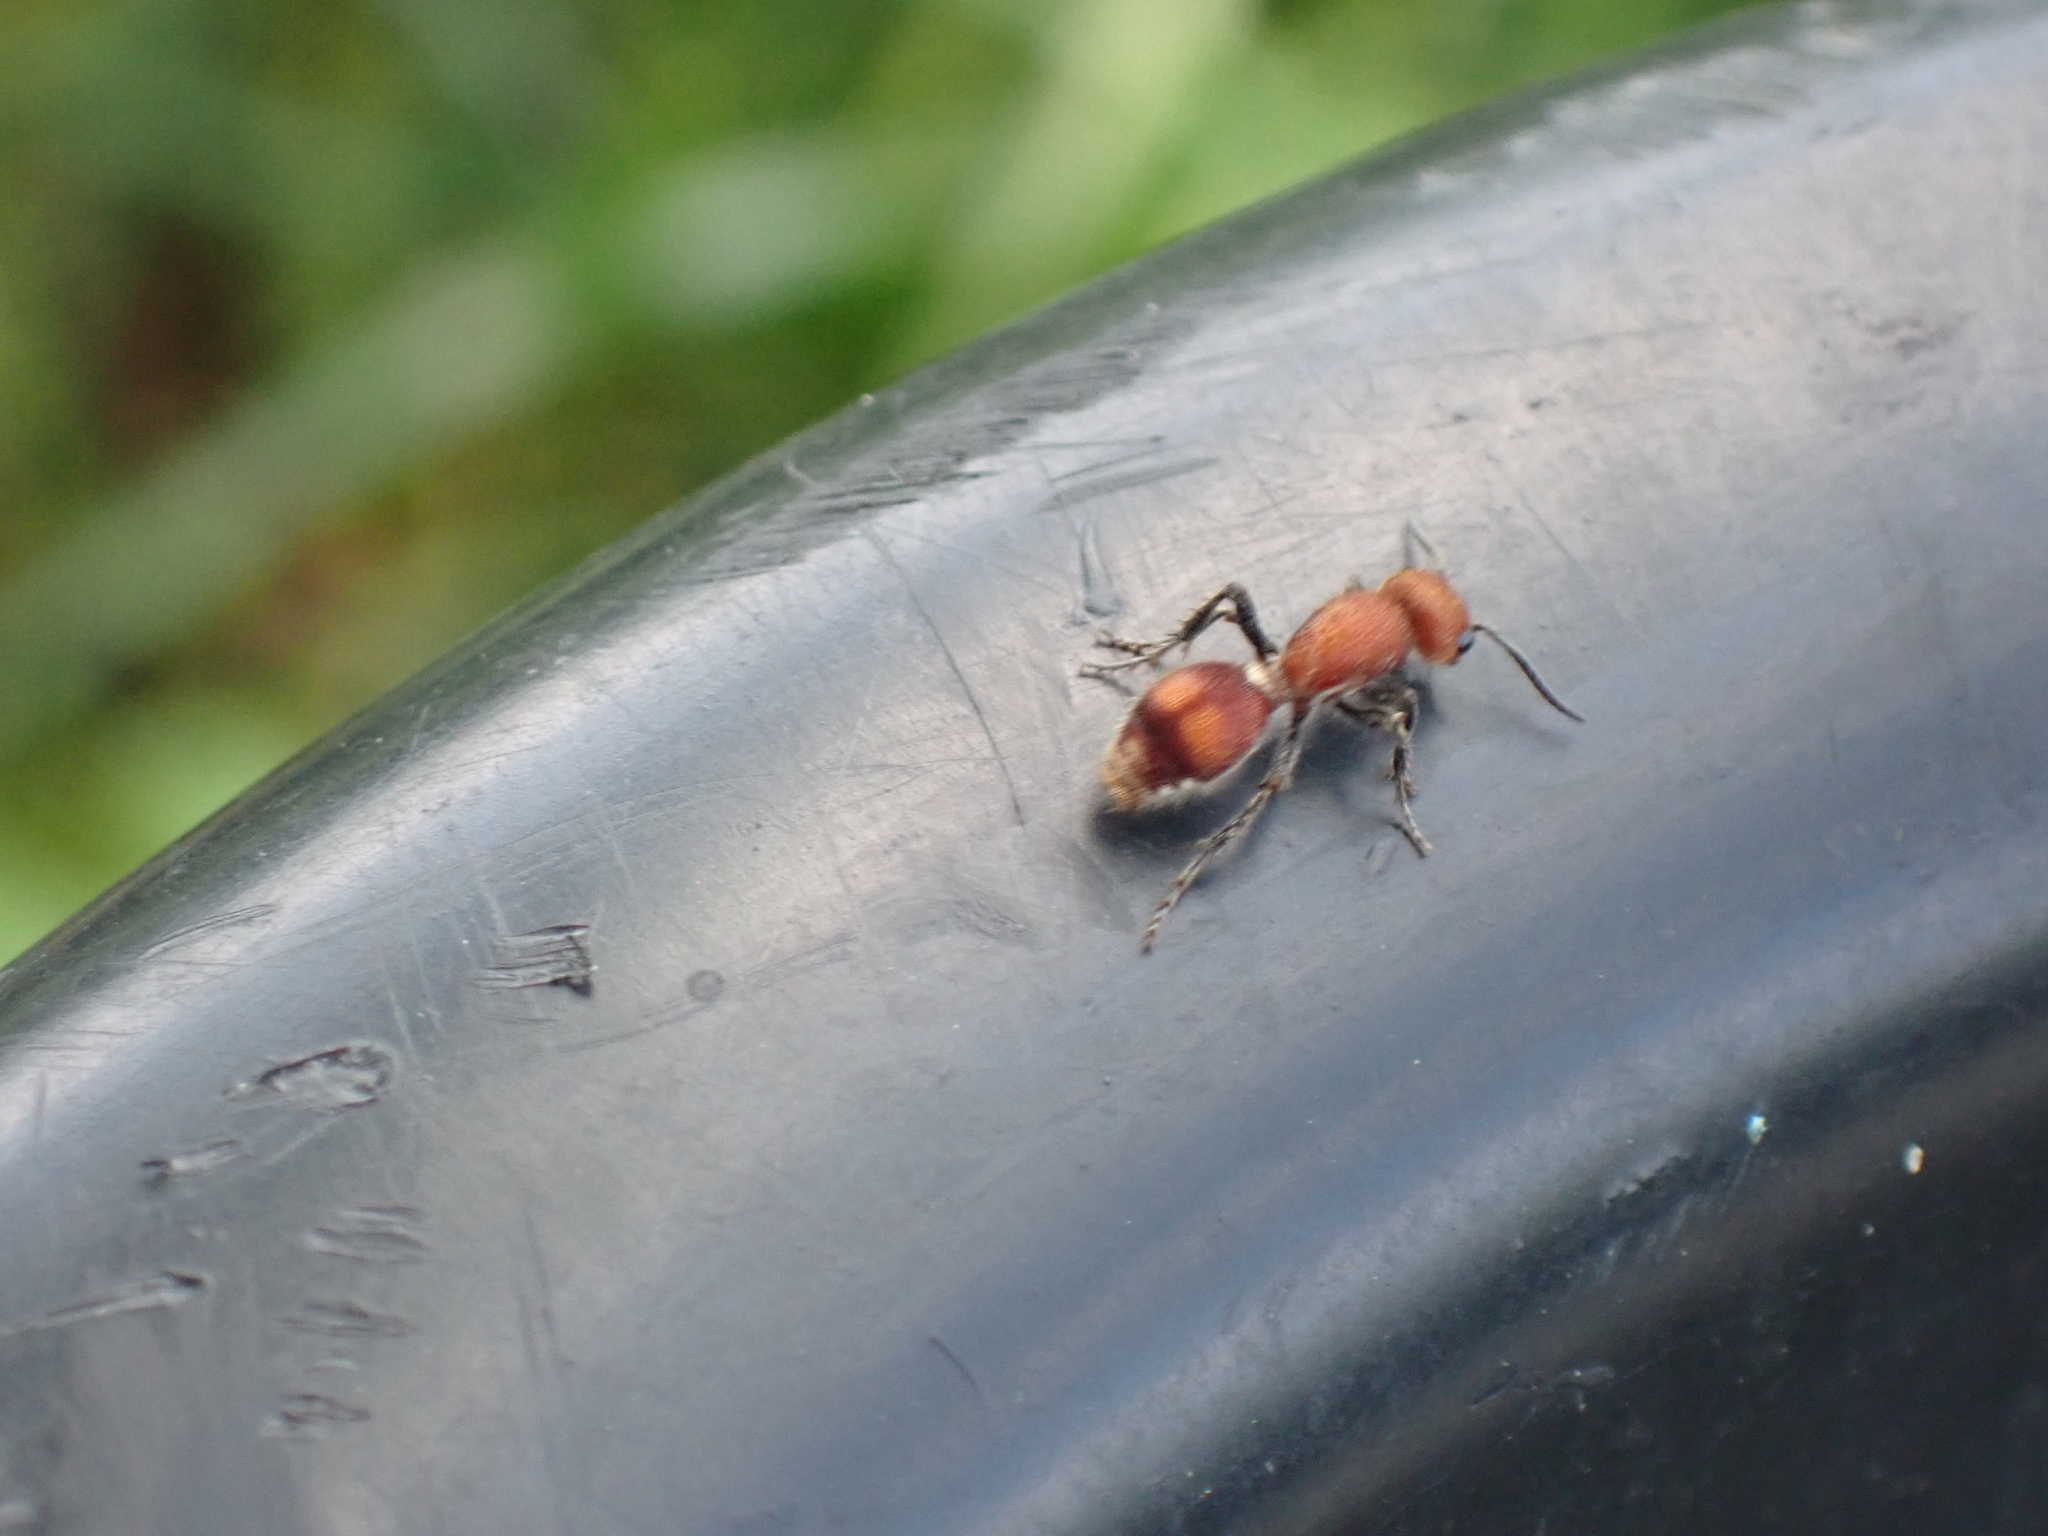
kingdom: Animalia
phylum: Arthropoda
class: Insecta
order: Hymenoptera
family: Mutillidae
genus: Dasymutilla
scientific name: Dasymutilla
